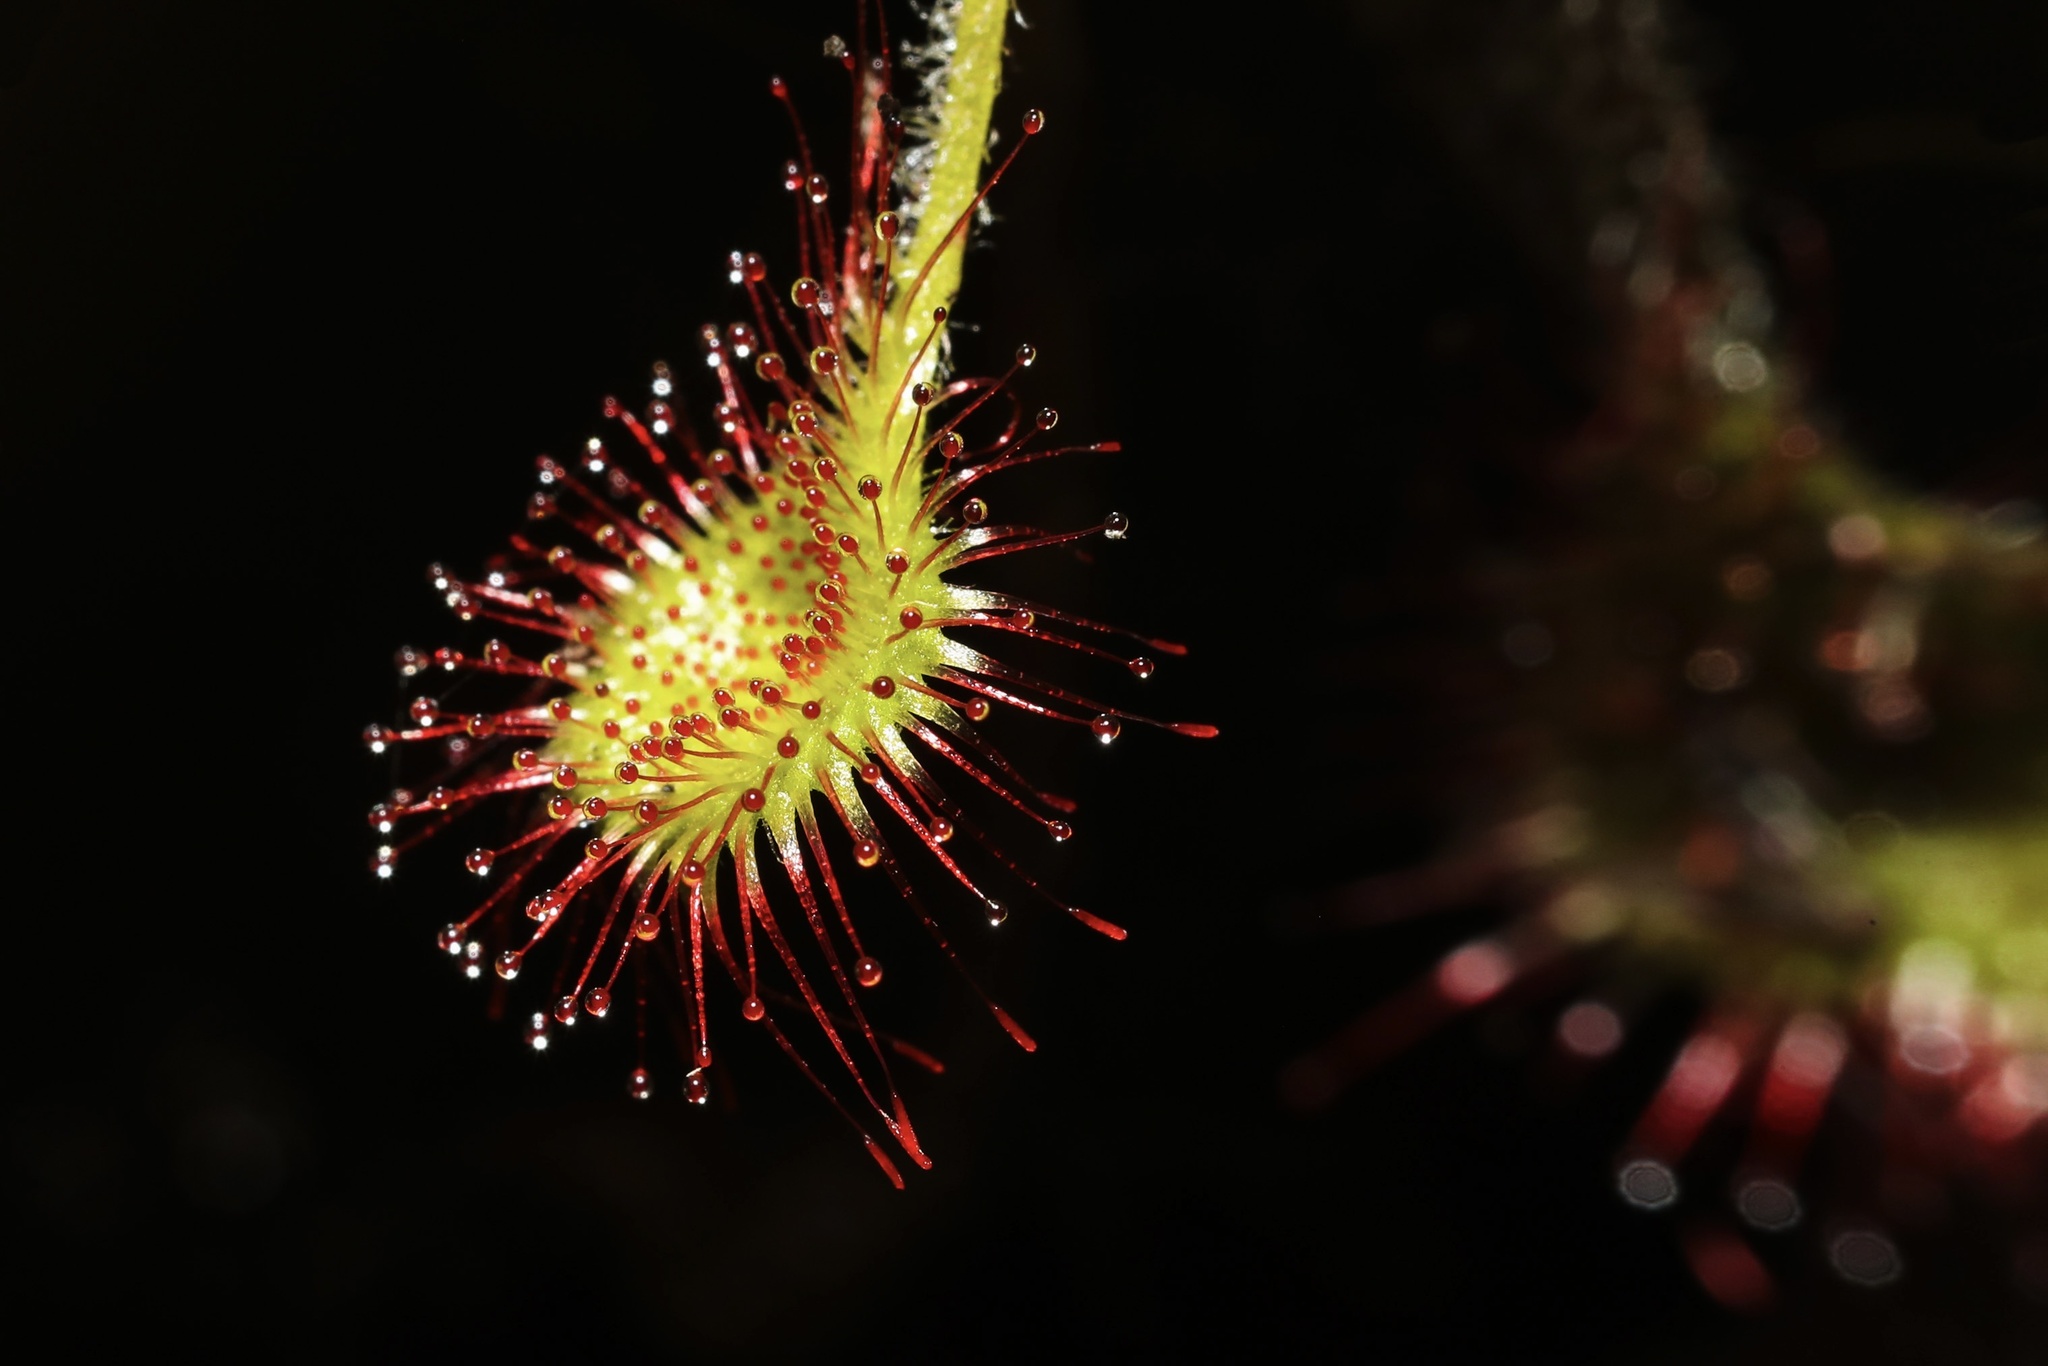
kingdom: Plantae
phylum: Tracheophyta
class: Magnoliopsida
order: Caryophyllales
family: Droseraceae
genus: Drosera
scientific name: Drosera rotundifolia
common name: Round-leaved sundew
